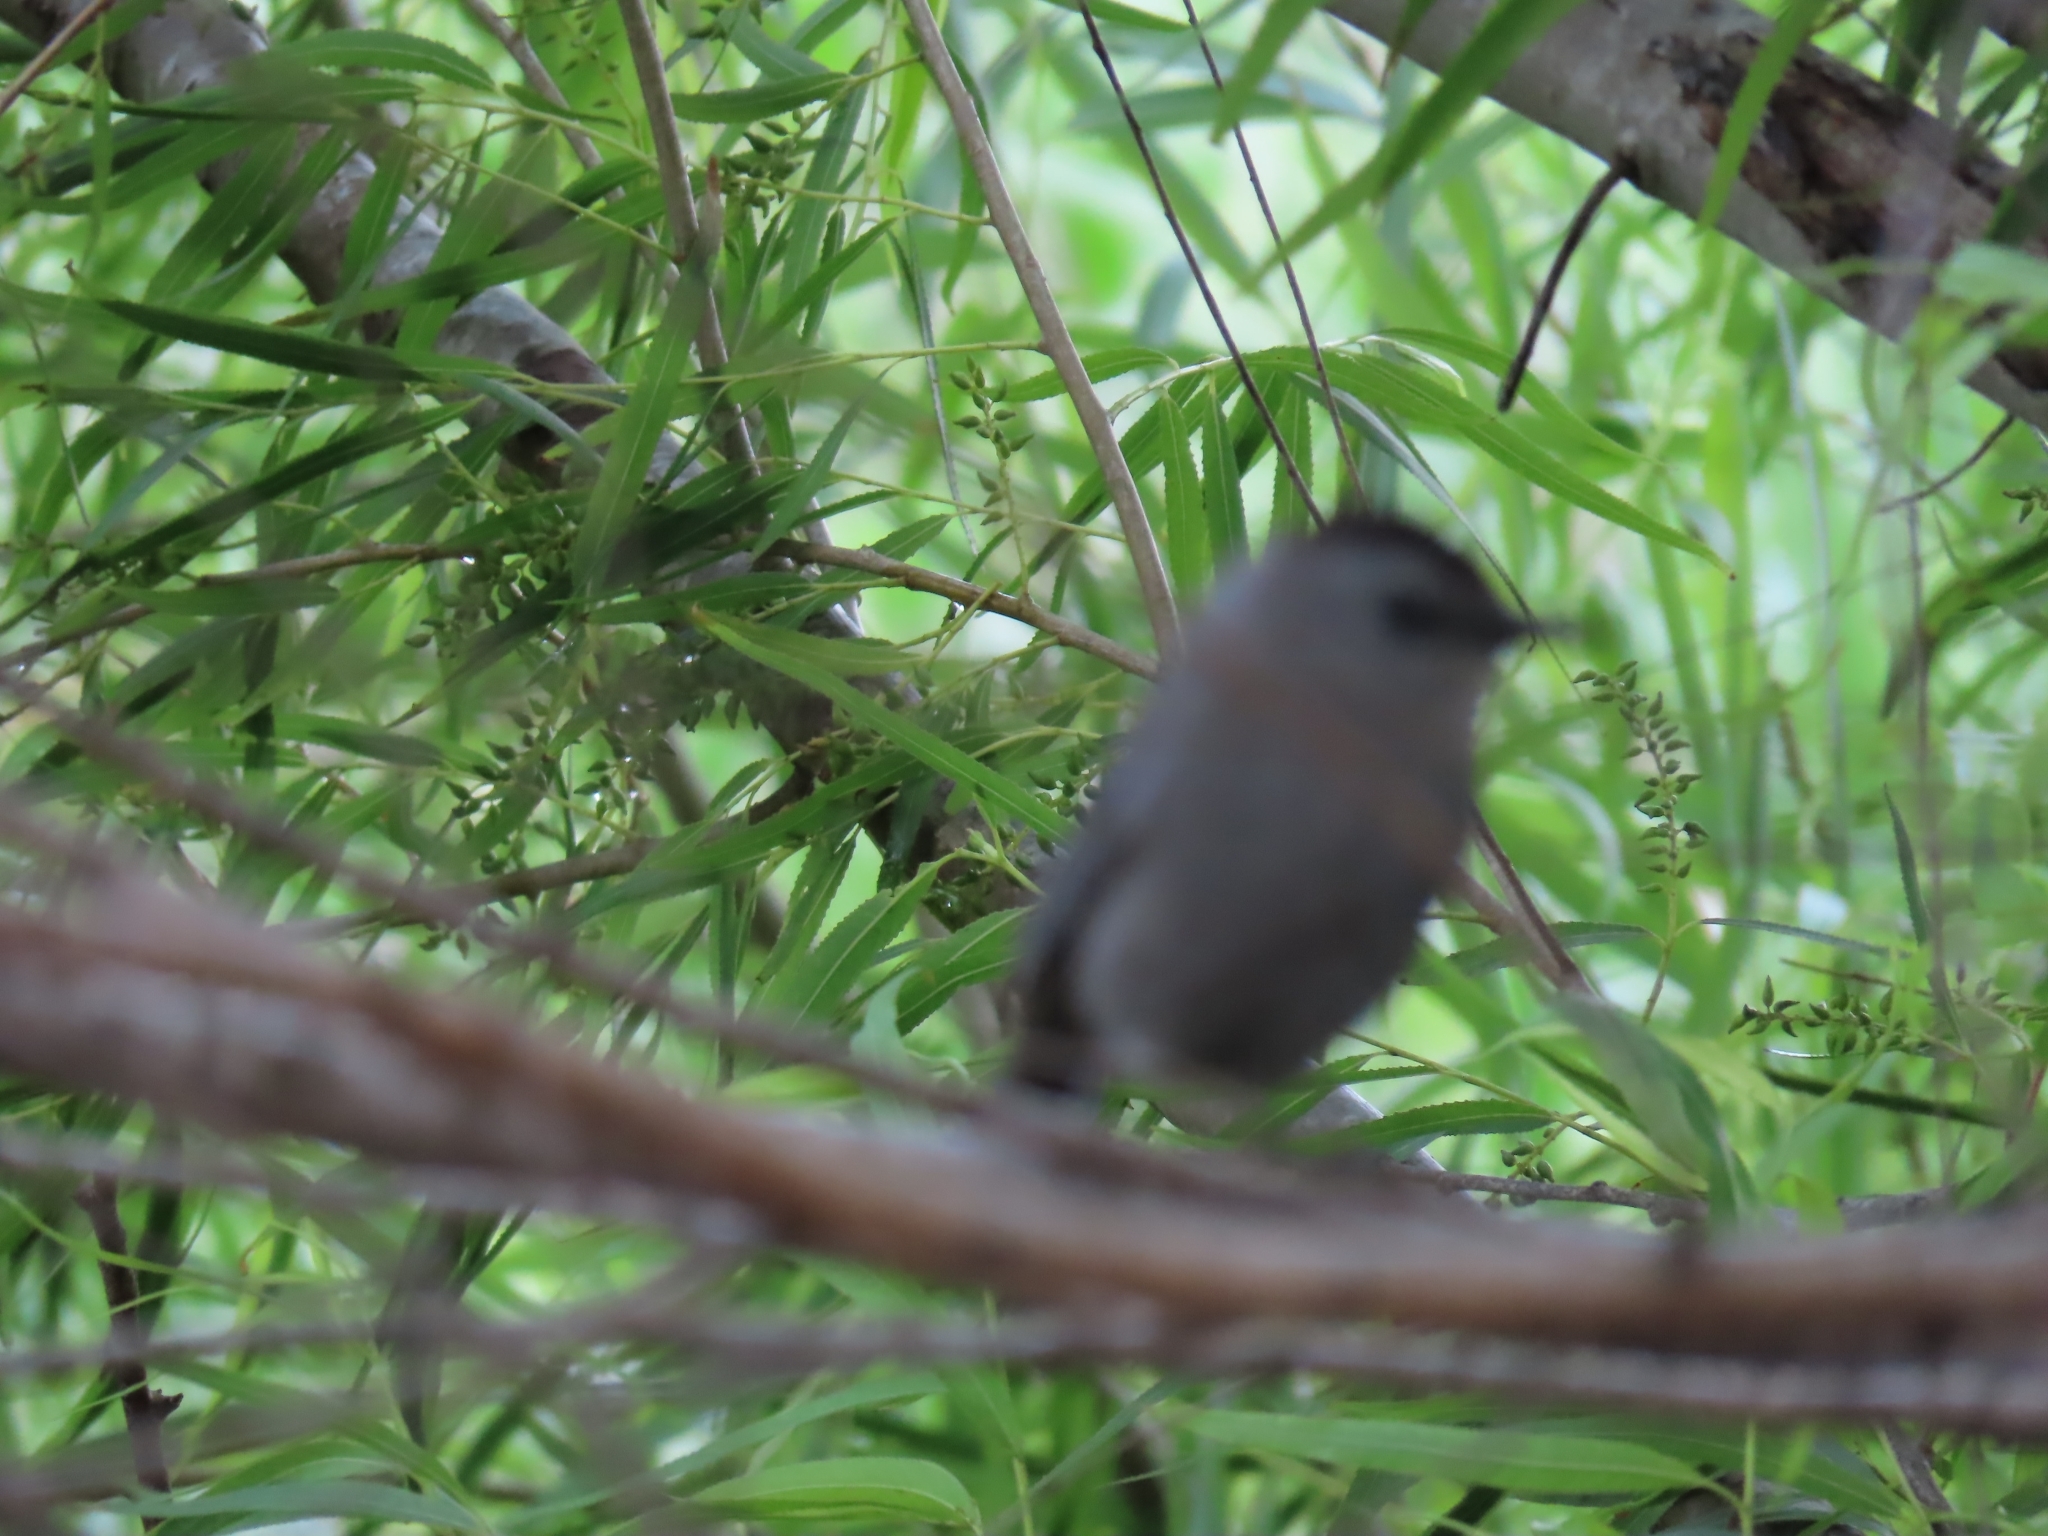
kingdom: Animalia
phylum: Chordata
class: Aves
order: Passeriformes
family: Mimidae
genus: Dumetella
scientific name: Dumetella carolinensis
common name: Gray catbird
